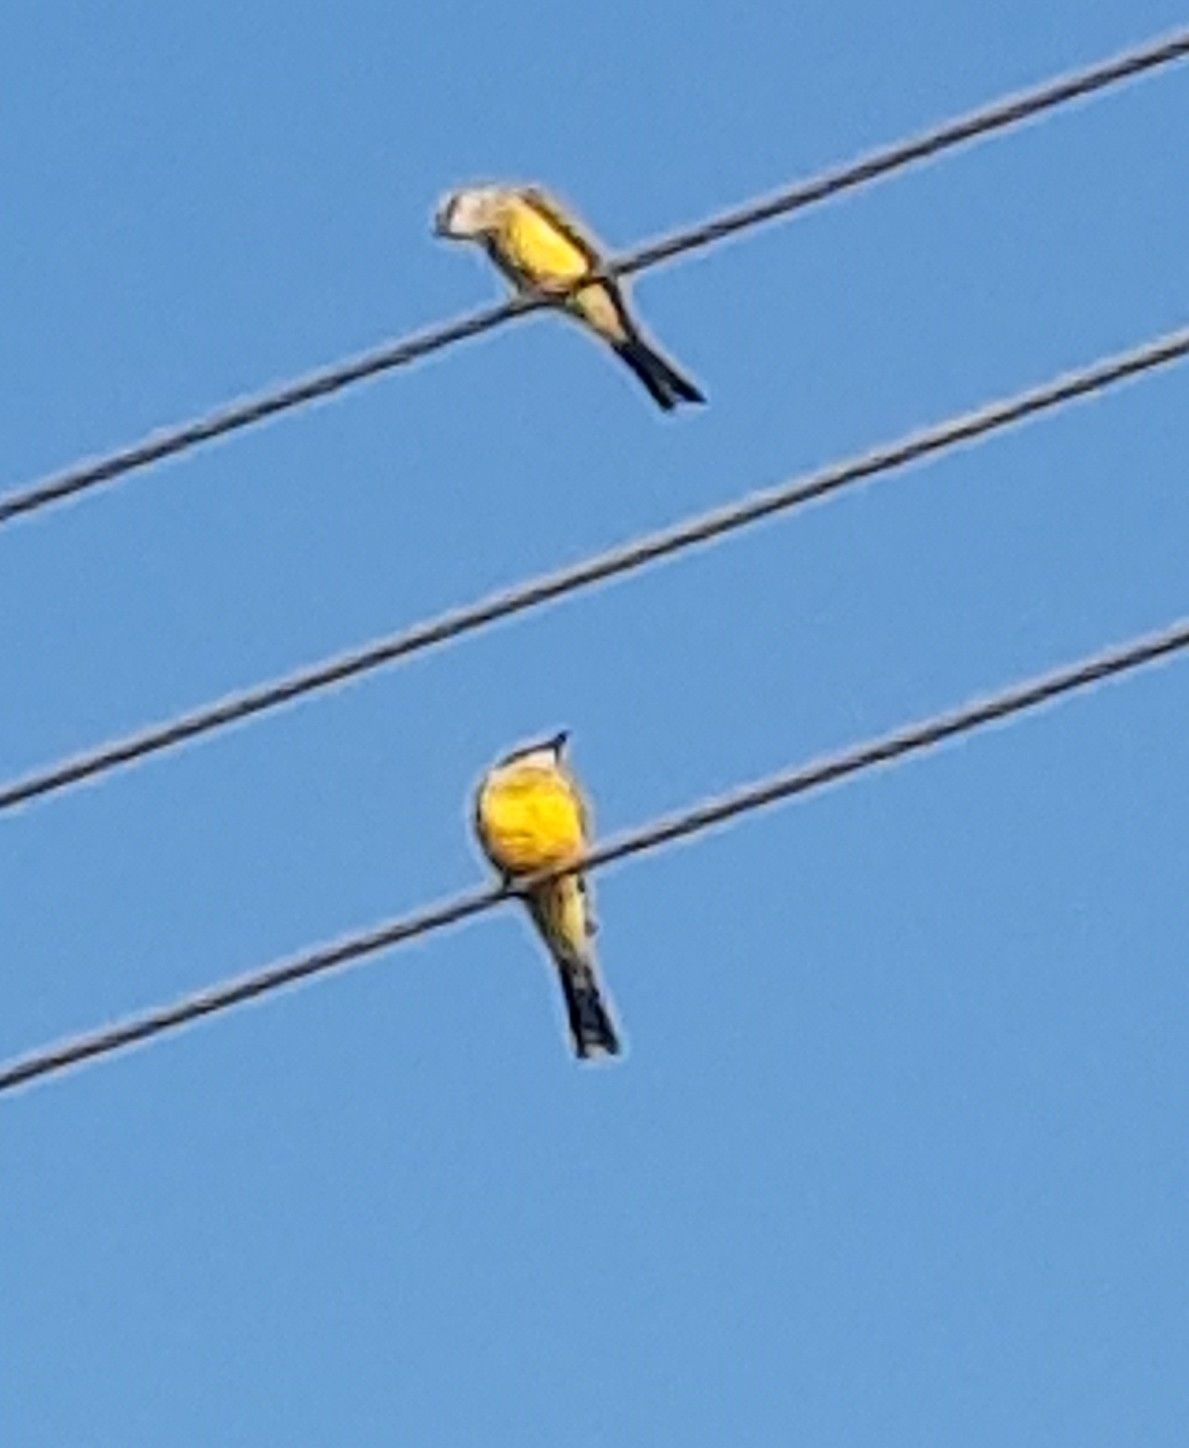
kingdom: Animalia
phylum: Chordata
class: Aves
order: Passeriformes
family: Tyrannidae
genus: Tyrannus
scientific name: Tyrannus melancholicus
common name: Tropical kingbird
